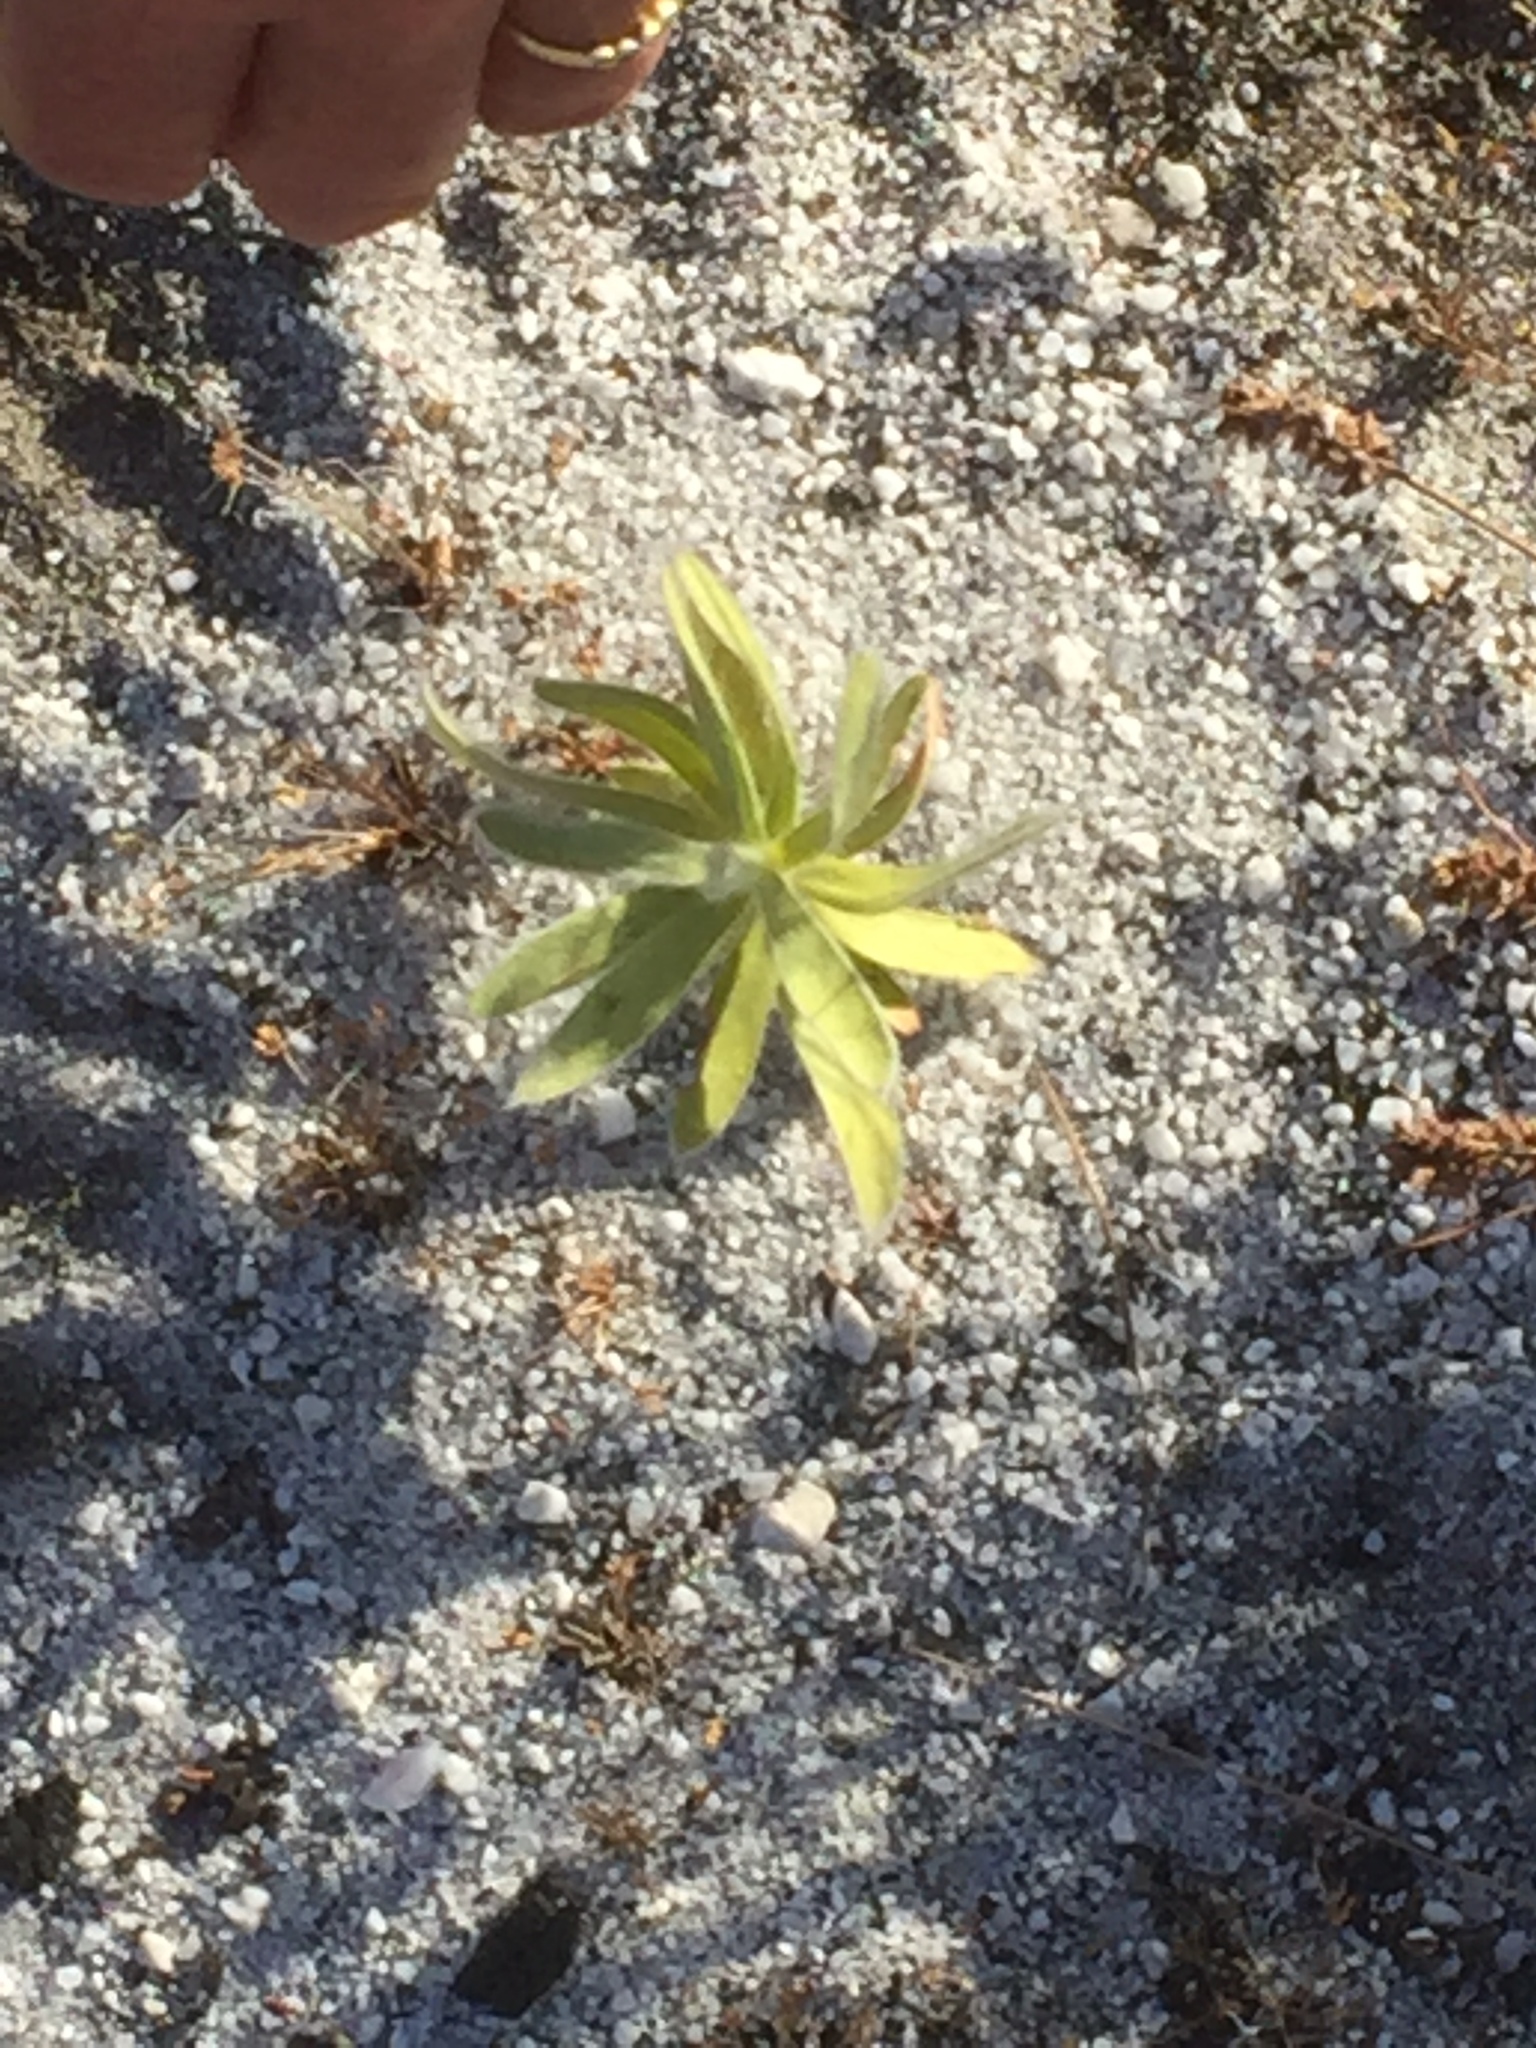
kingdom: Plantae
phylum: Tracheophyta
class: Magnoliopsida
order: Proteales
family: Proteaceae
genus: Leucospermum
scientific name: Leucospermum conocarpodendron
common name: Tree pincushion
